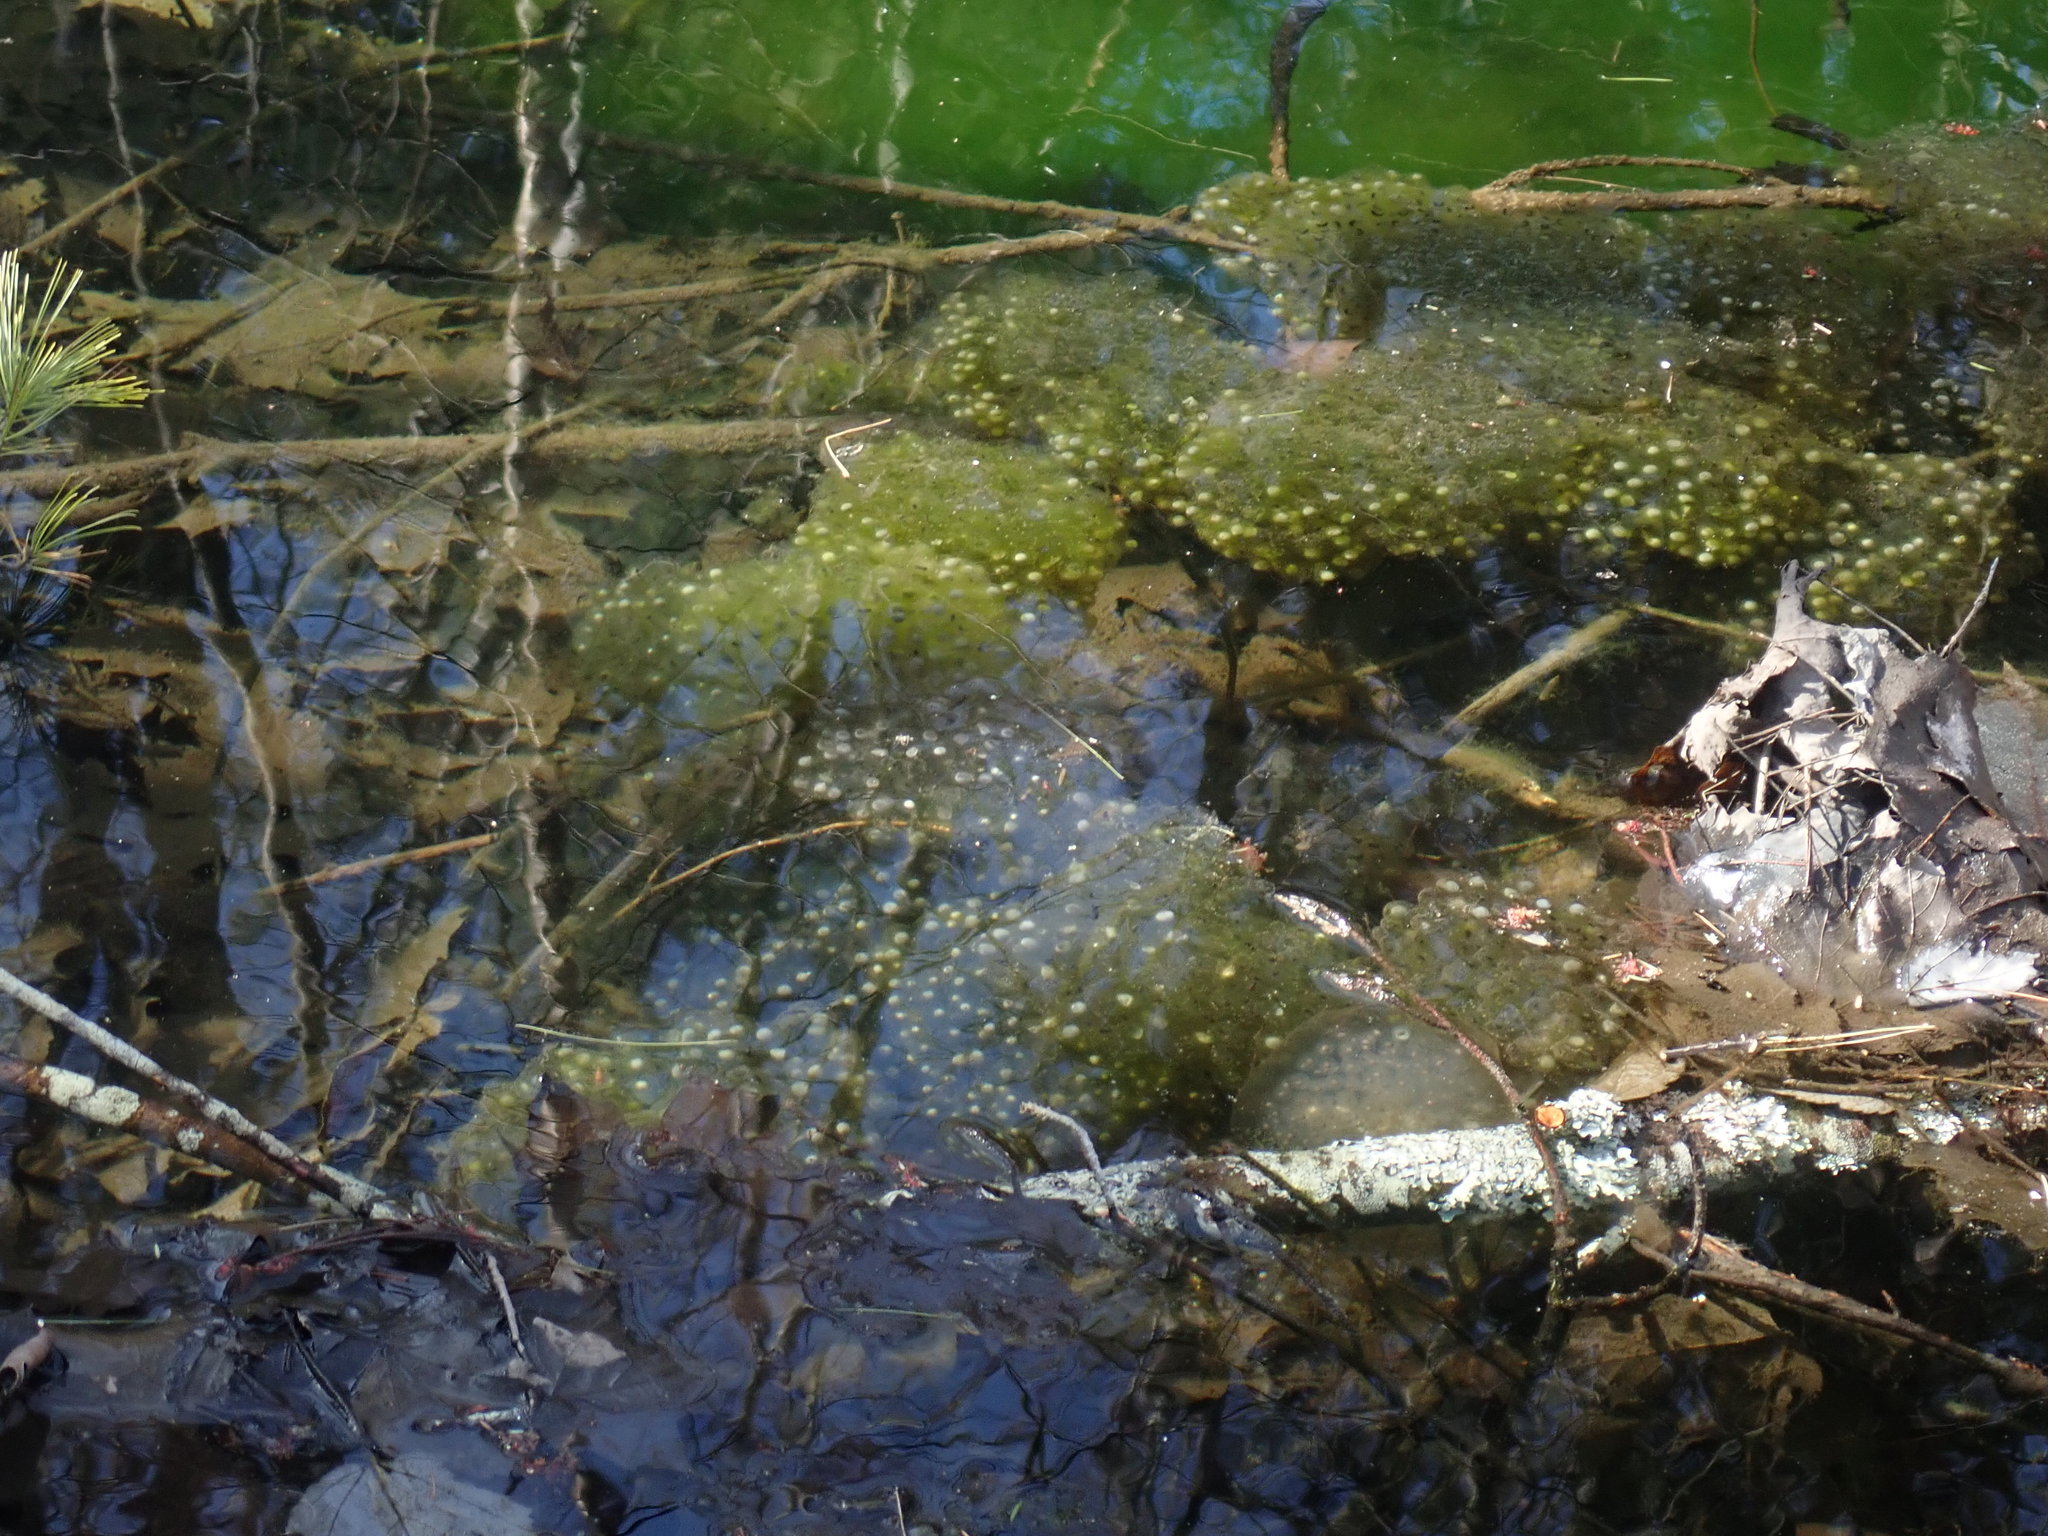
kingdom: Animalia
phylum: Chordata
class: Amphibia
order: Anura
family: Ranidae
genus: Lithobates
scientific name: Lithobates sylvaticus
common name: Wood frog
